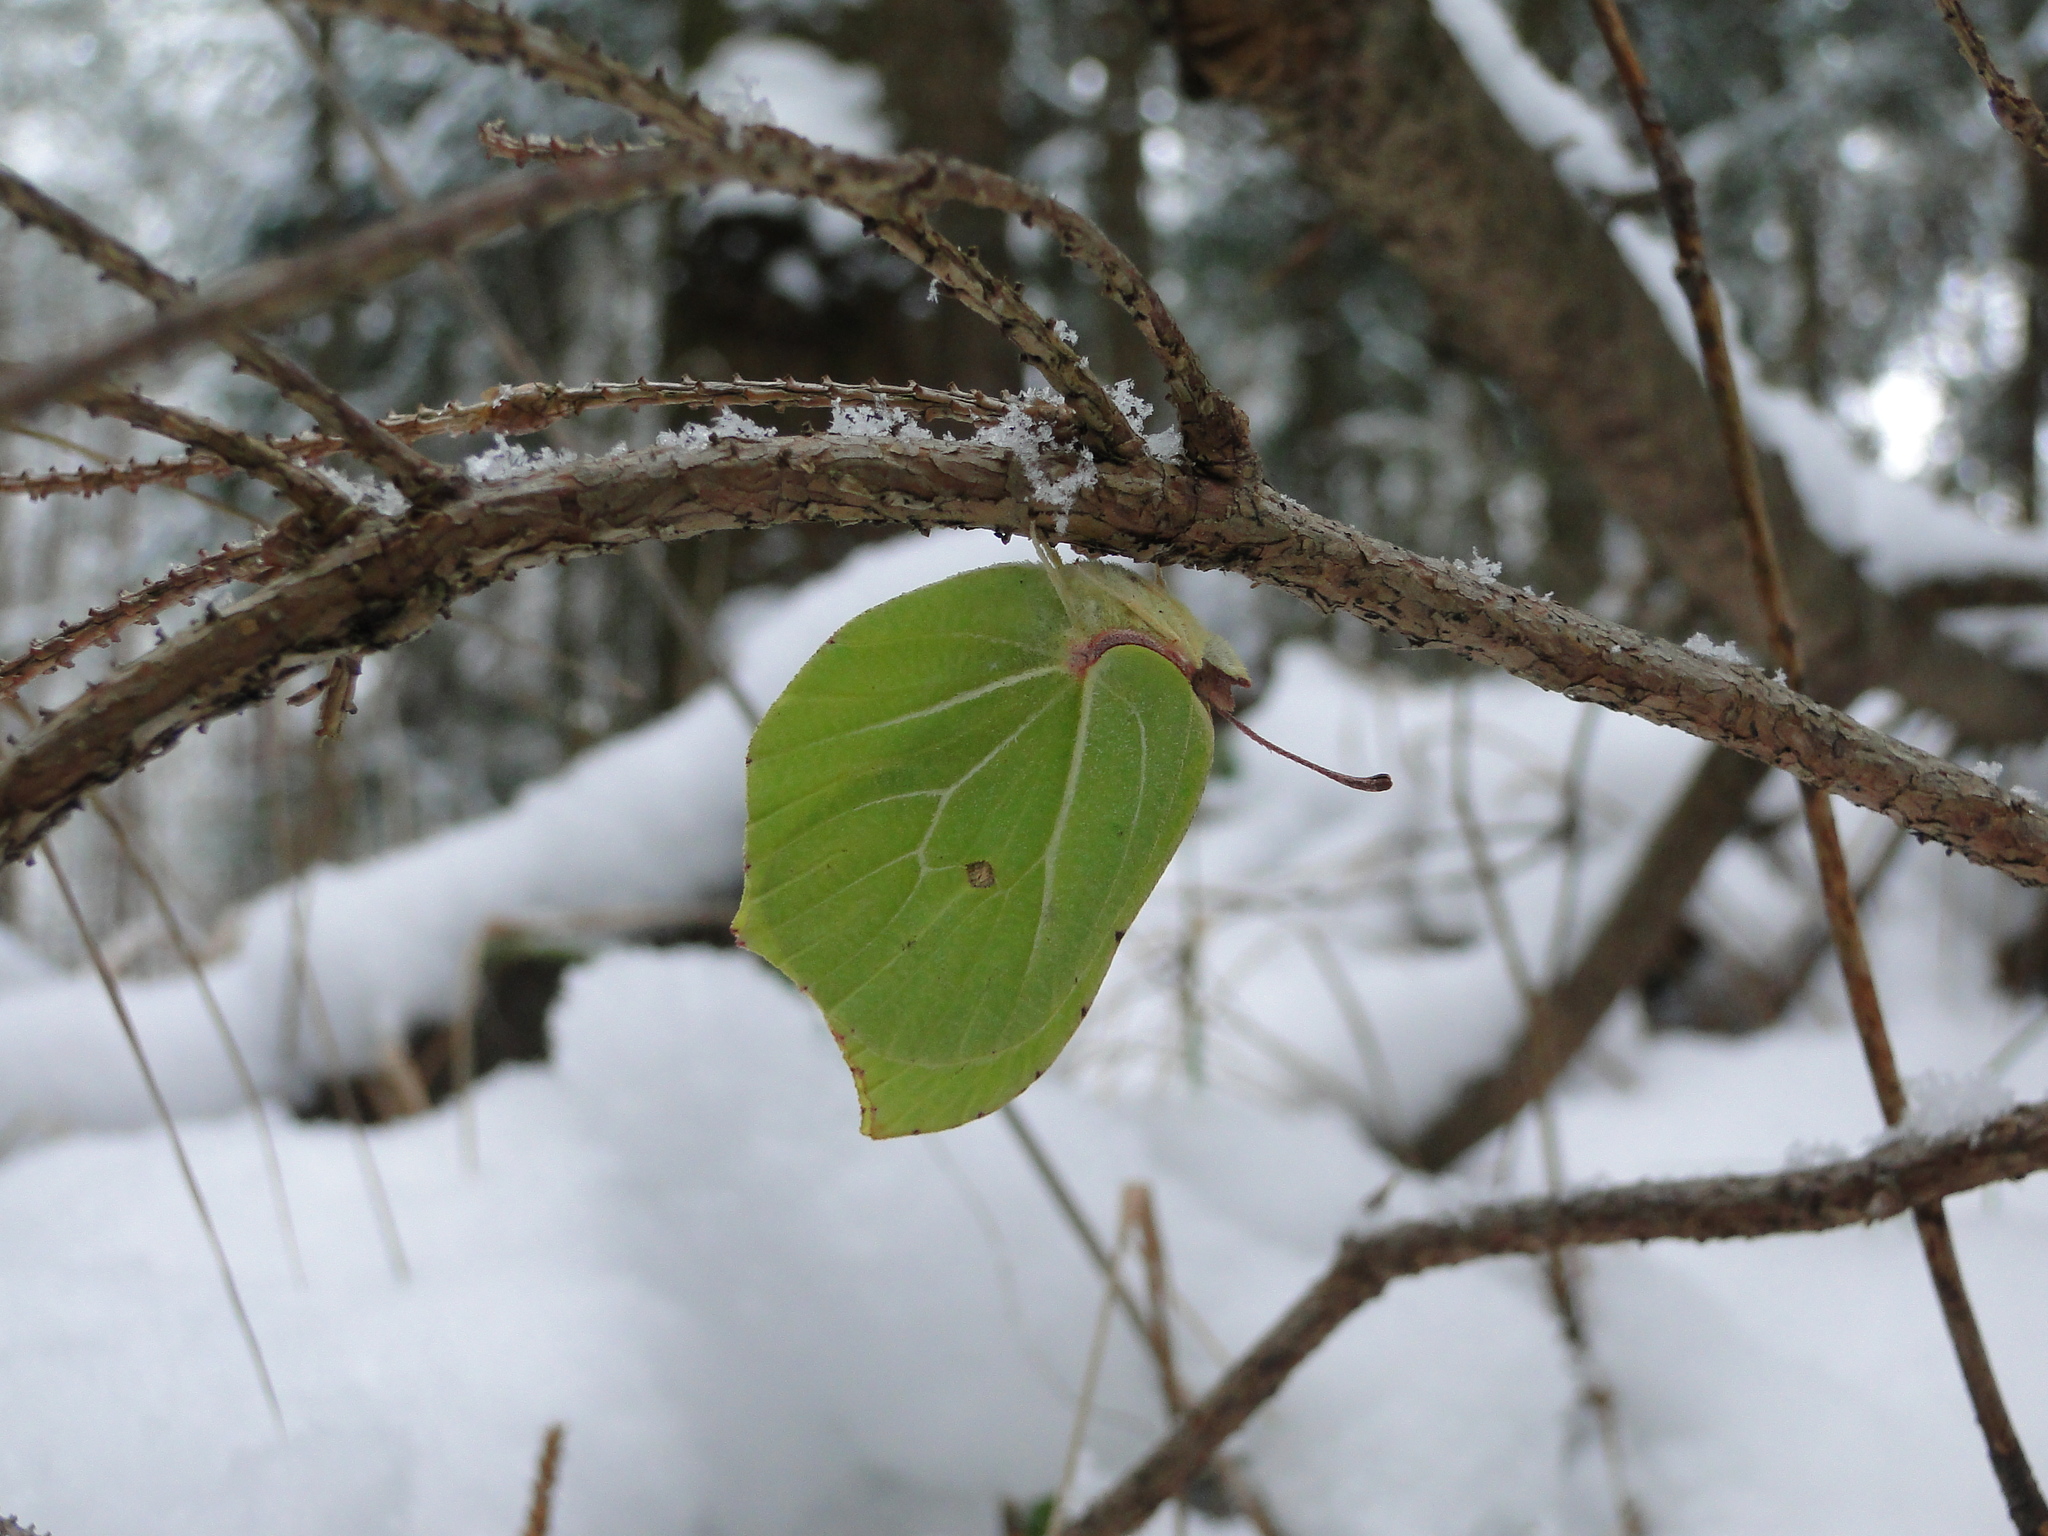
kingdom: Animalia
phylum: Arthropoda
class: Insecta
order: Lepidoptera
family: Pieridae
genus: Gonepteryx
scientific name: Gonepteryx rhamni
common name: Brimstone
